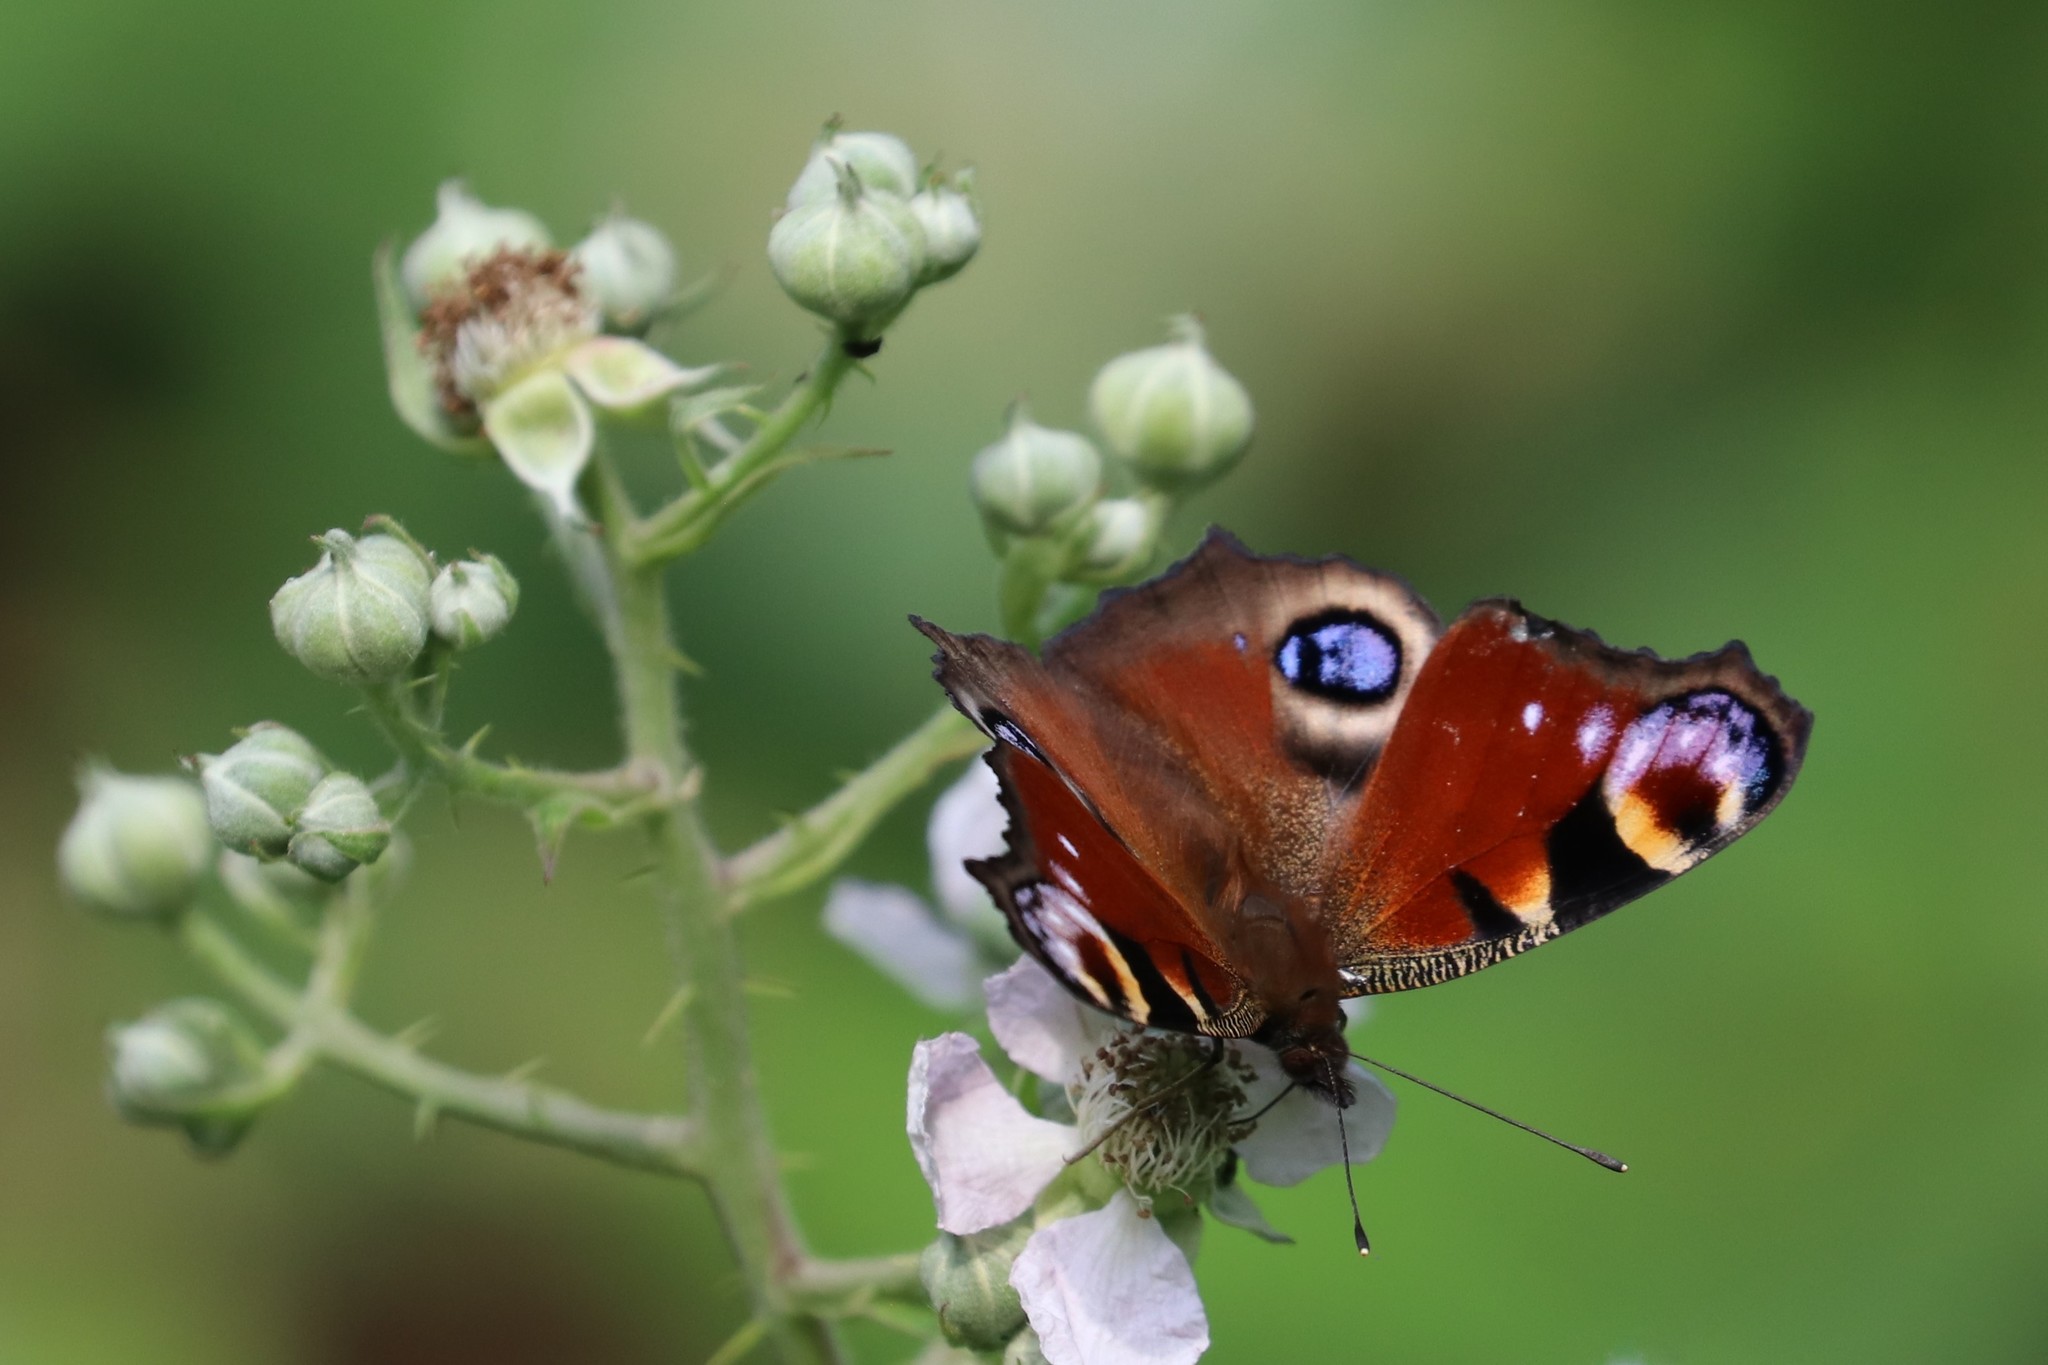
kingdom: Animalia
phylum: Arthropoda
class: Insecta
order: Lepidoptera
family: Nymphalidae
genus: Aglais
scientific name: Aglais io
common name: Peacock
